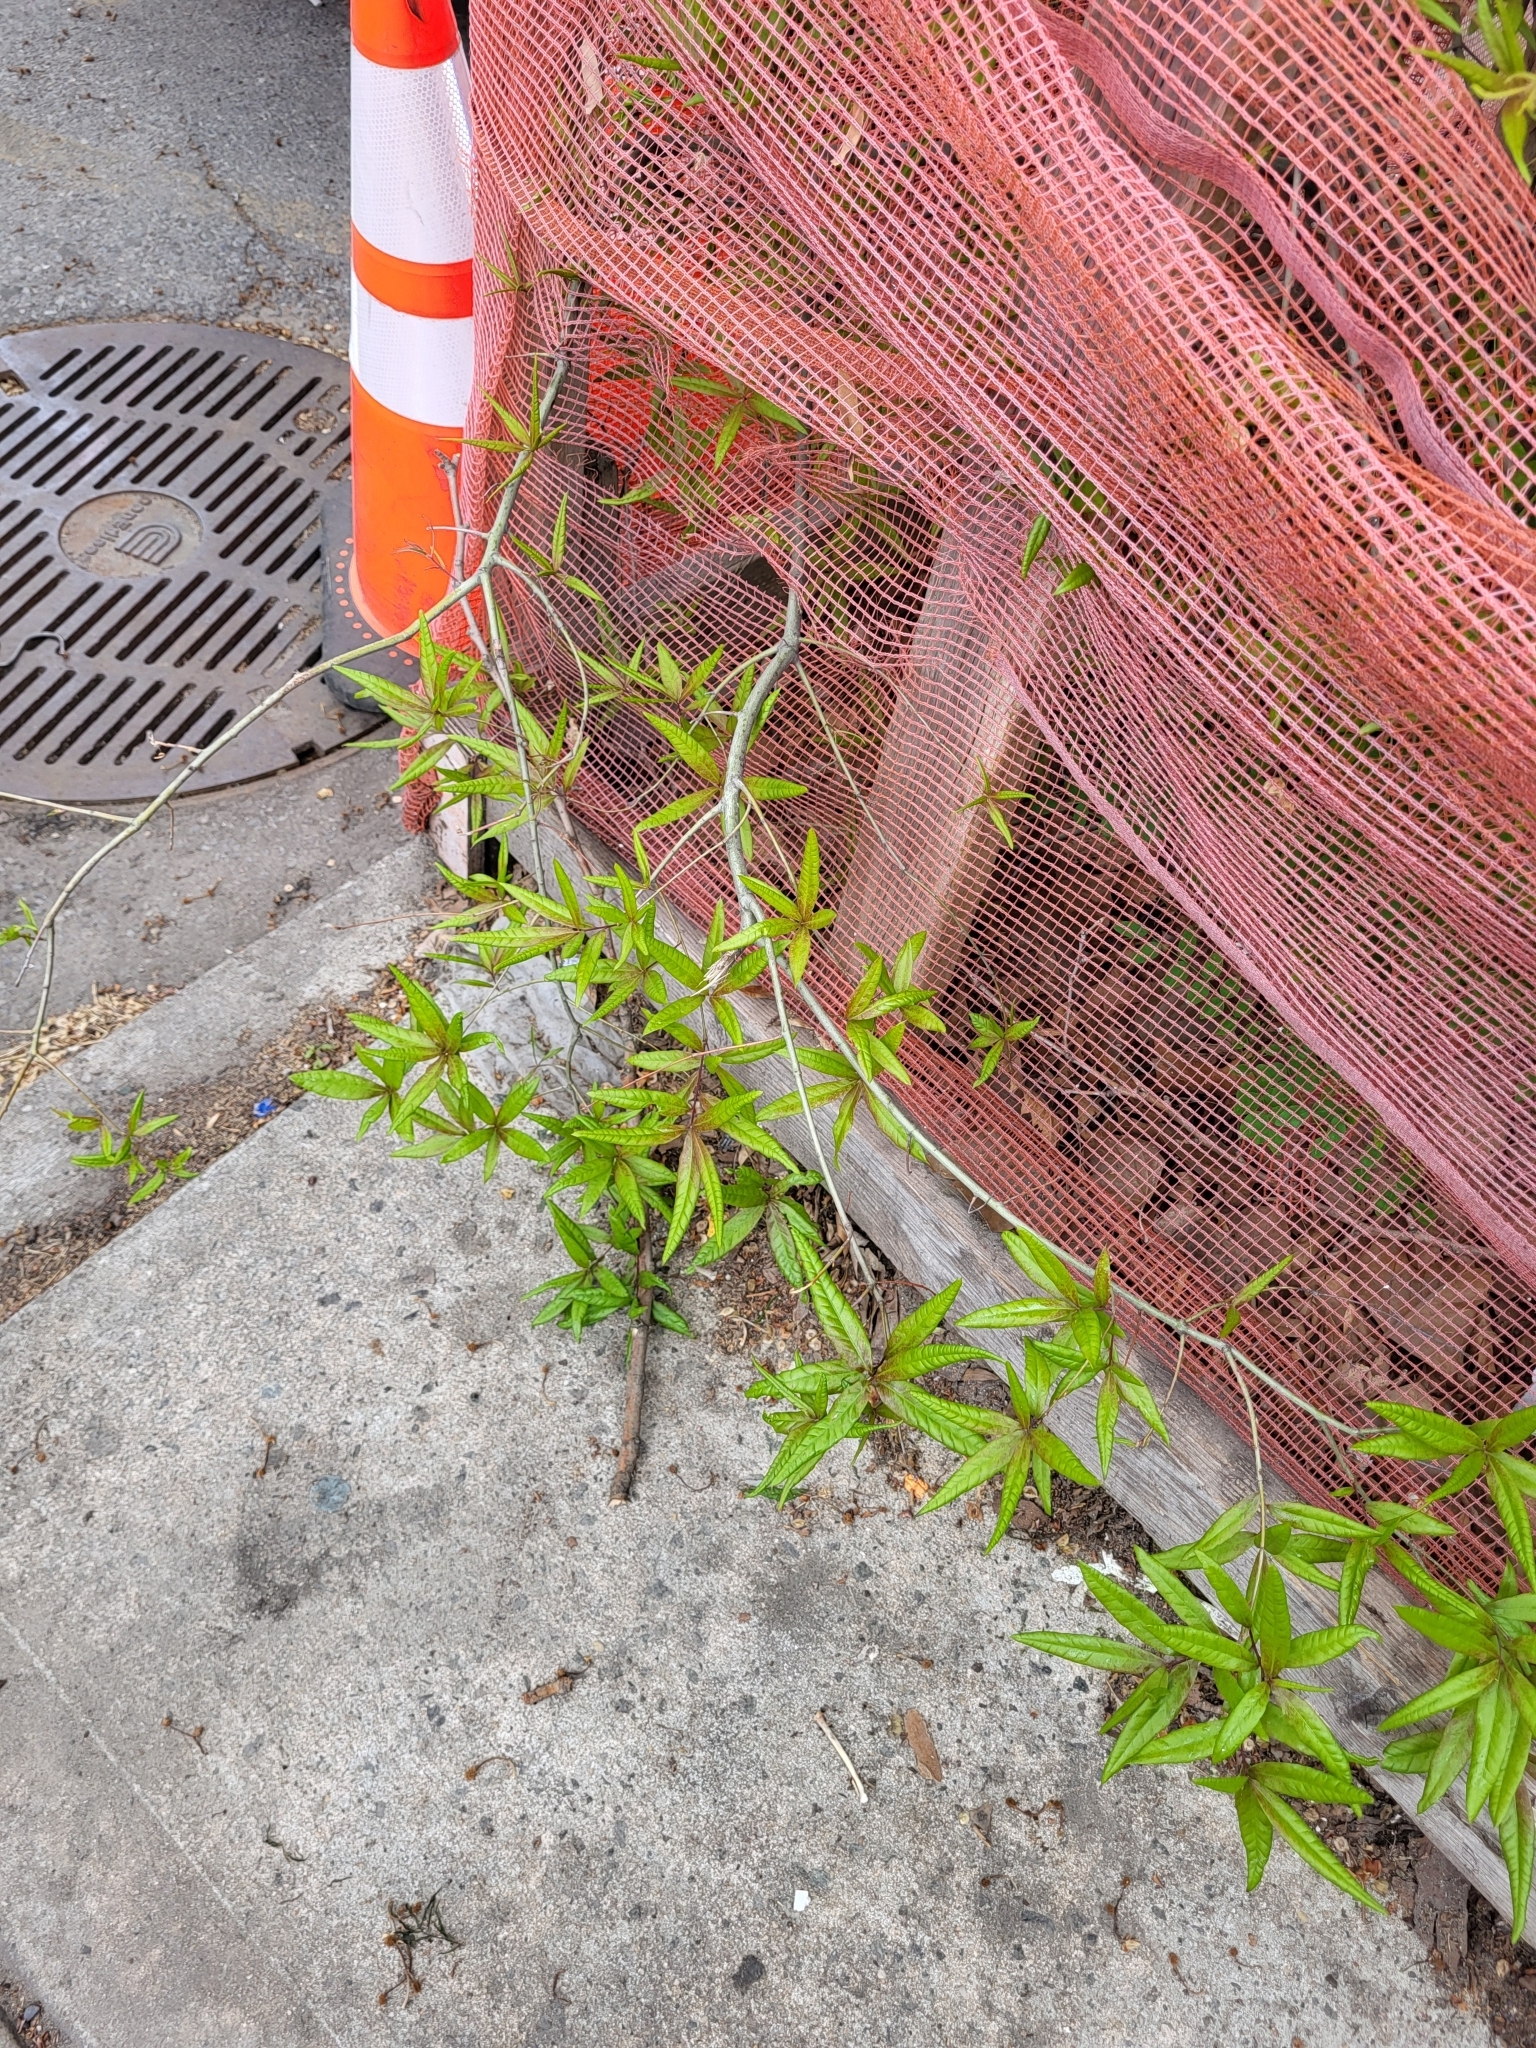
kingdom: Plantae
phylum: Tracheophyta
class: Magnoliopsida
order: Fagales
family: Fagaceae
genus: Quercus
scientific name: Quercus phellos
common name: Willow oak
